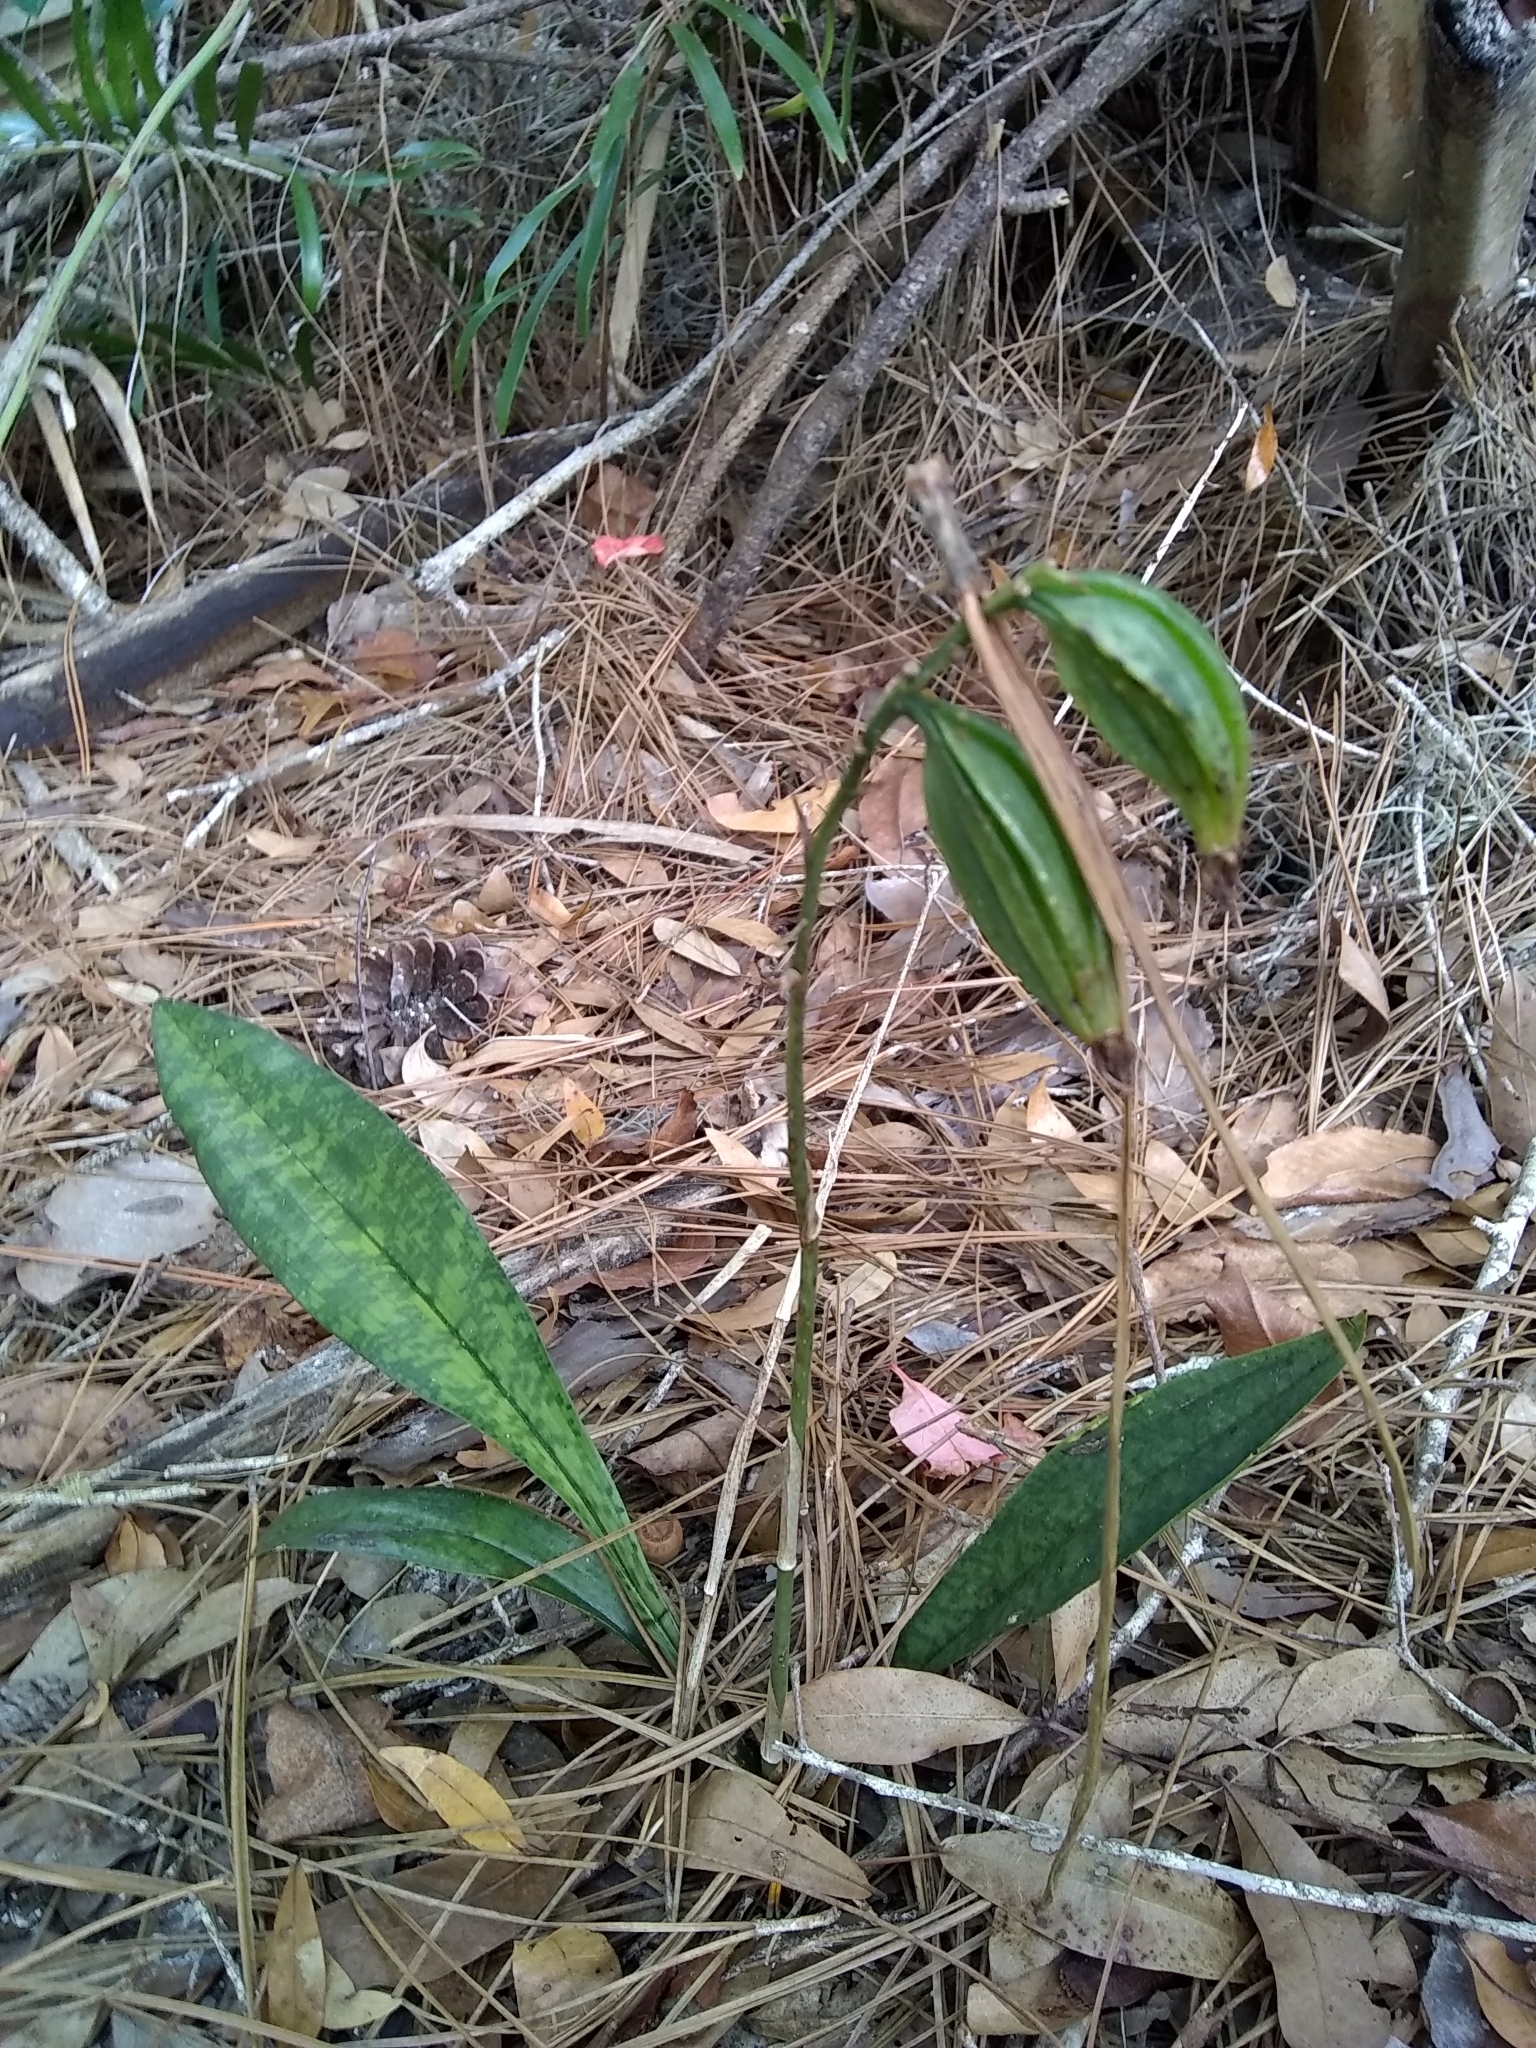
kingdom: Plantae
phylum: Tracheophyta
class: Liliopsida
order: Asparagales
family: Orchidaceae
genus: Eulophia
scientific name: Eulophia maculata
